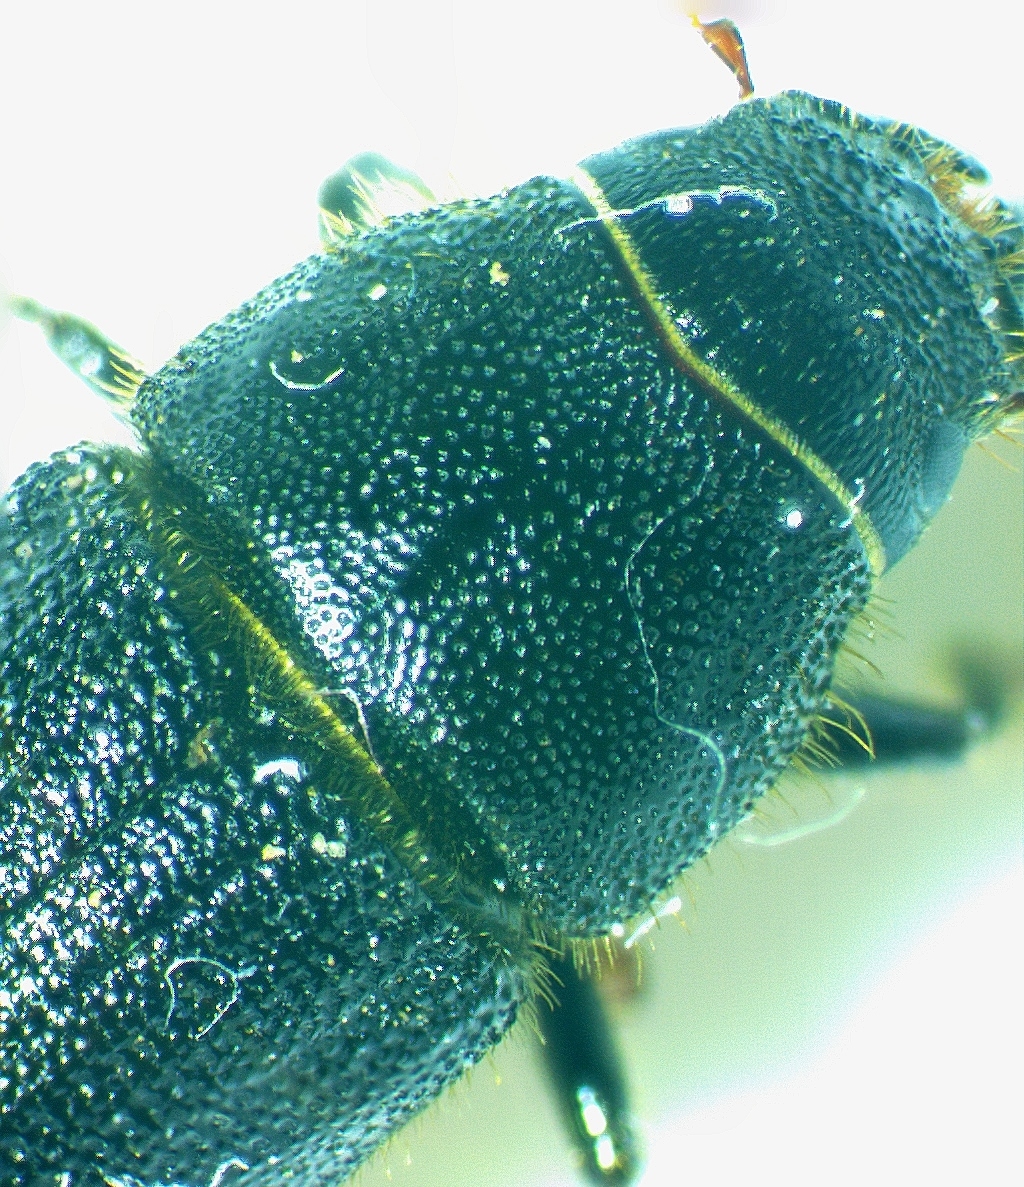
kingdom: Animalia
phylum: Arthropoda
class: Insecta
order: Coleoptera
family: Curculionidae
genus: Dendroctonus
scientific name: Dendroctonus terebrans
